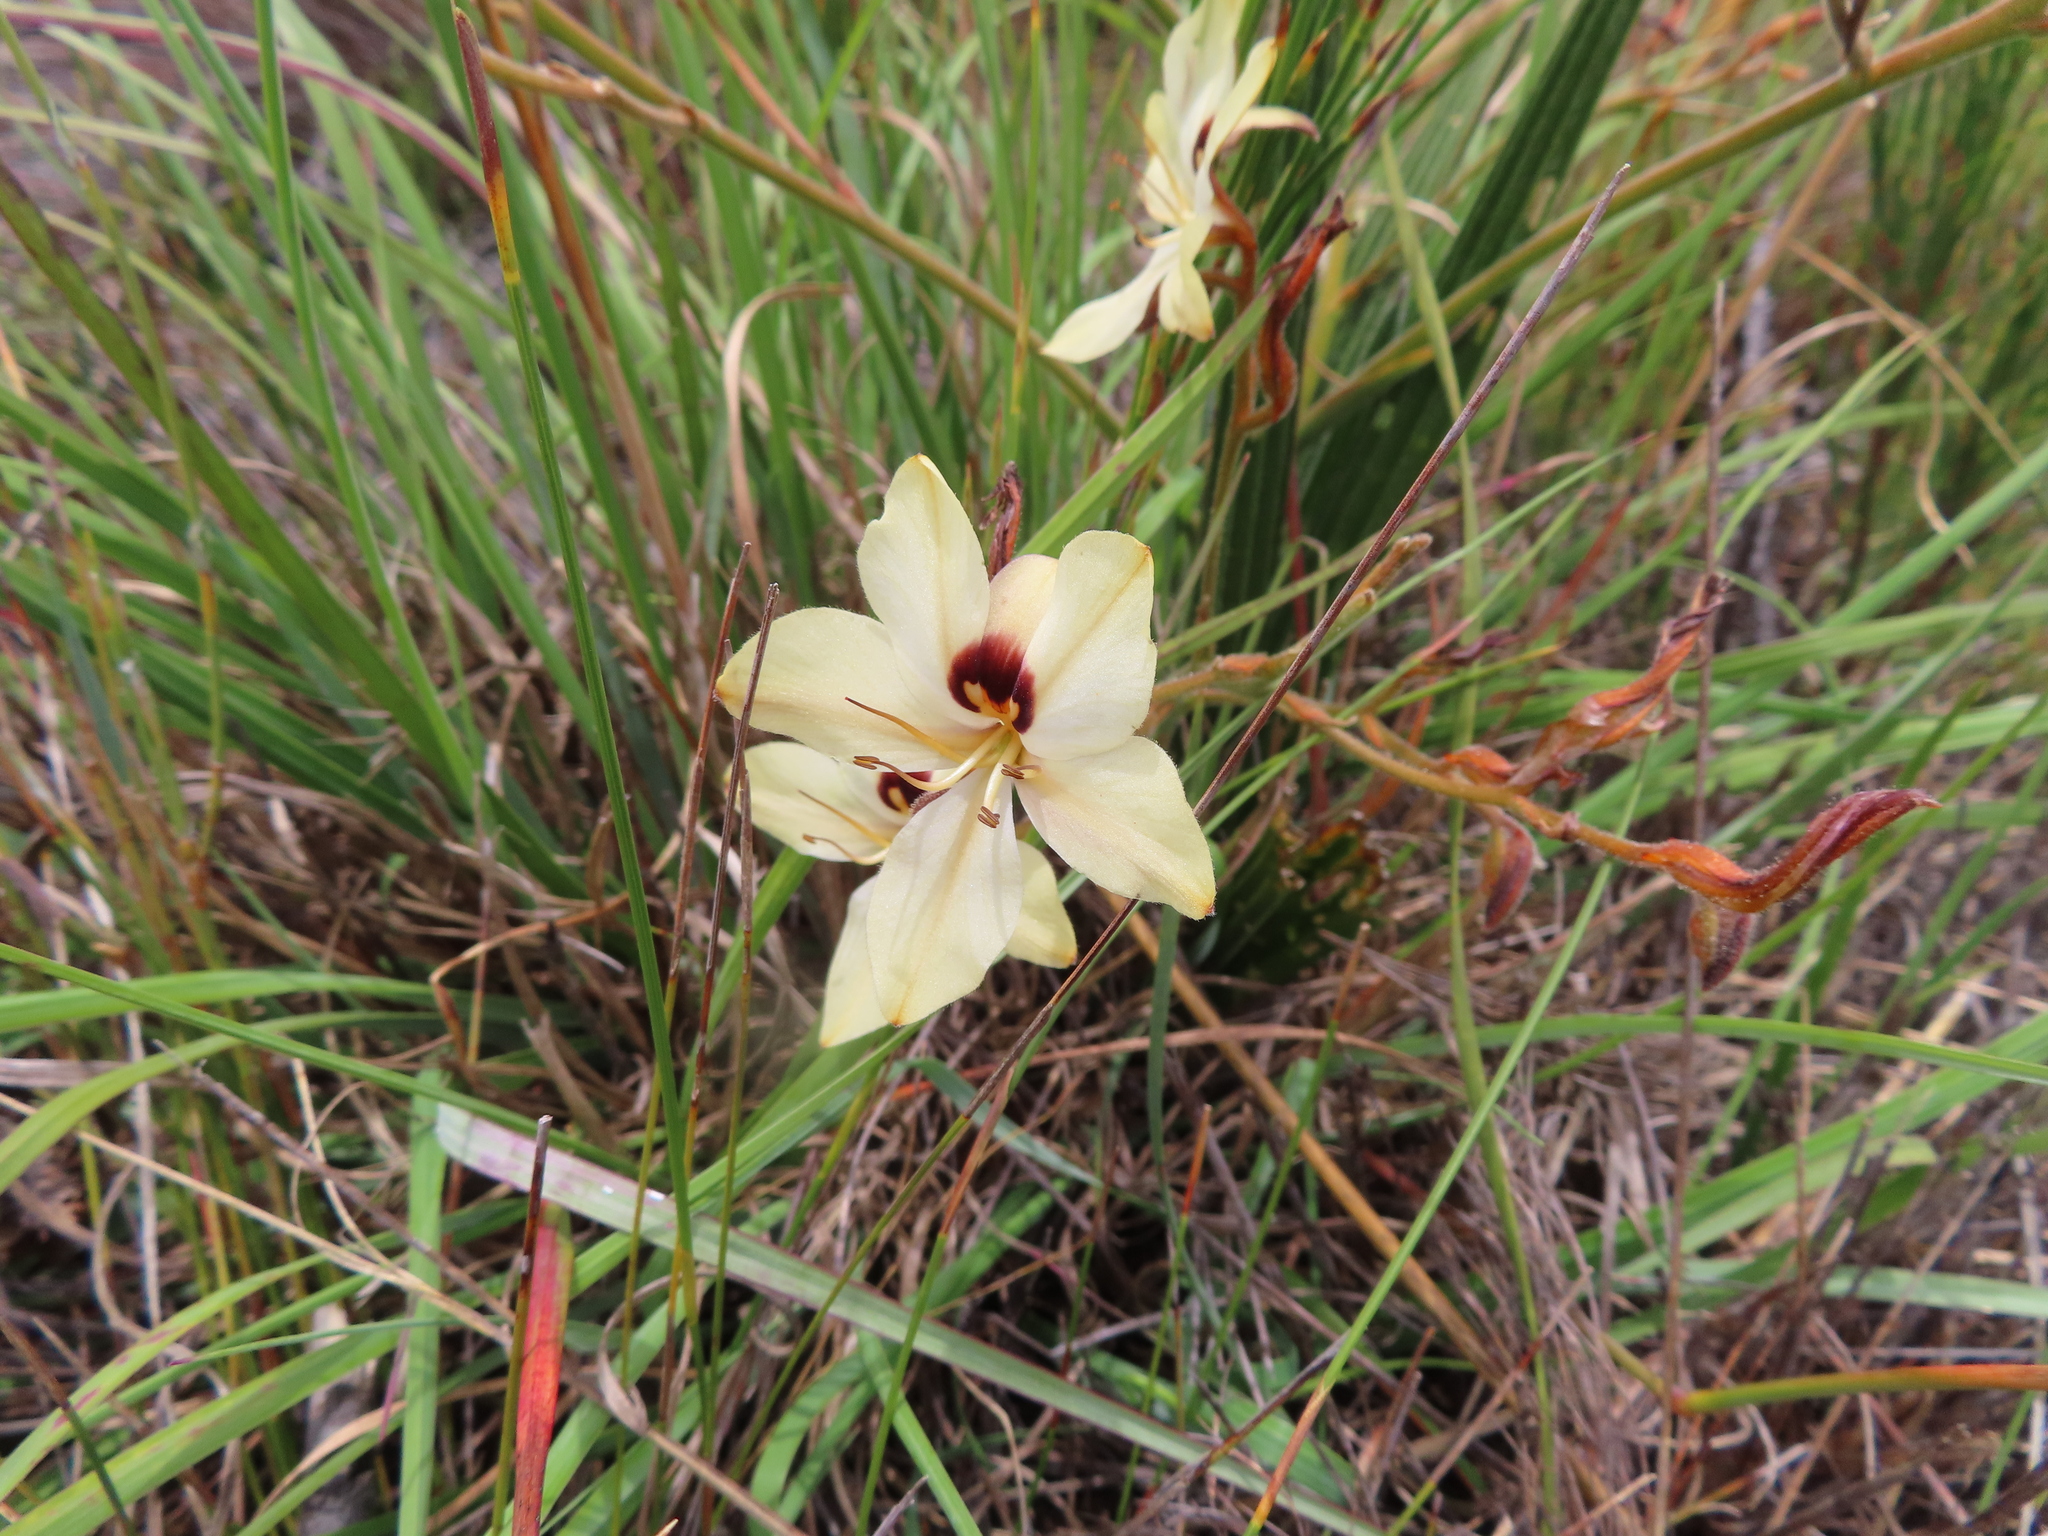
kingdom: Plantae
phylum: Tracheophyta
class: Liliopsida
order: Commelinales
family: Haemodoraceae
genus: Wachendorfia
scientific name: Wachendorfia paniculata
